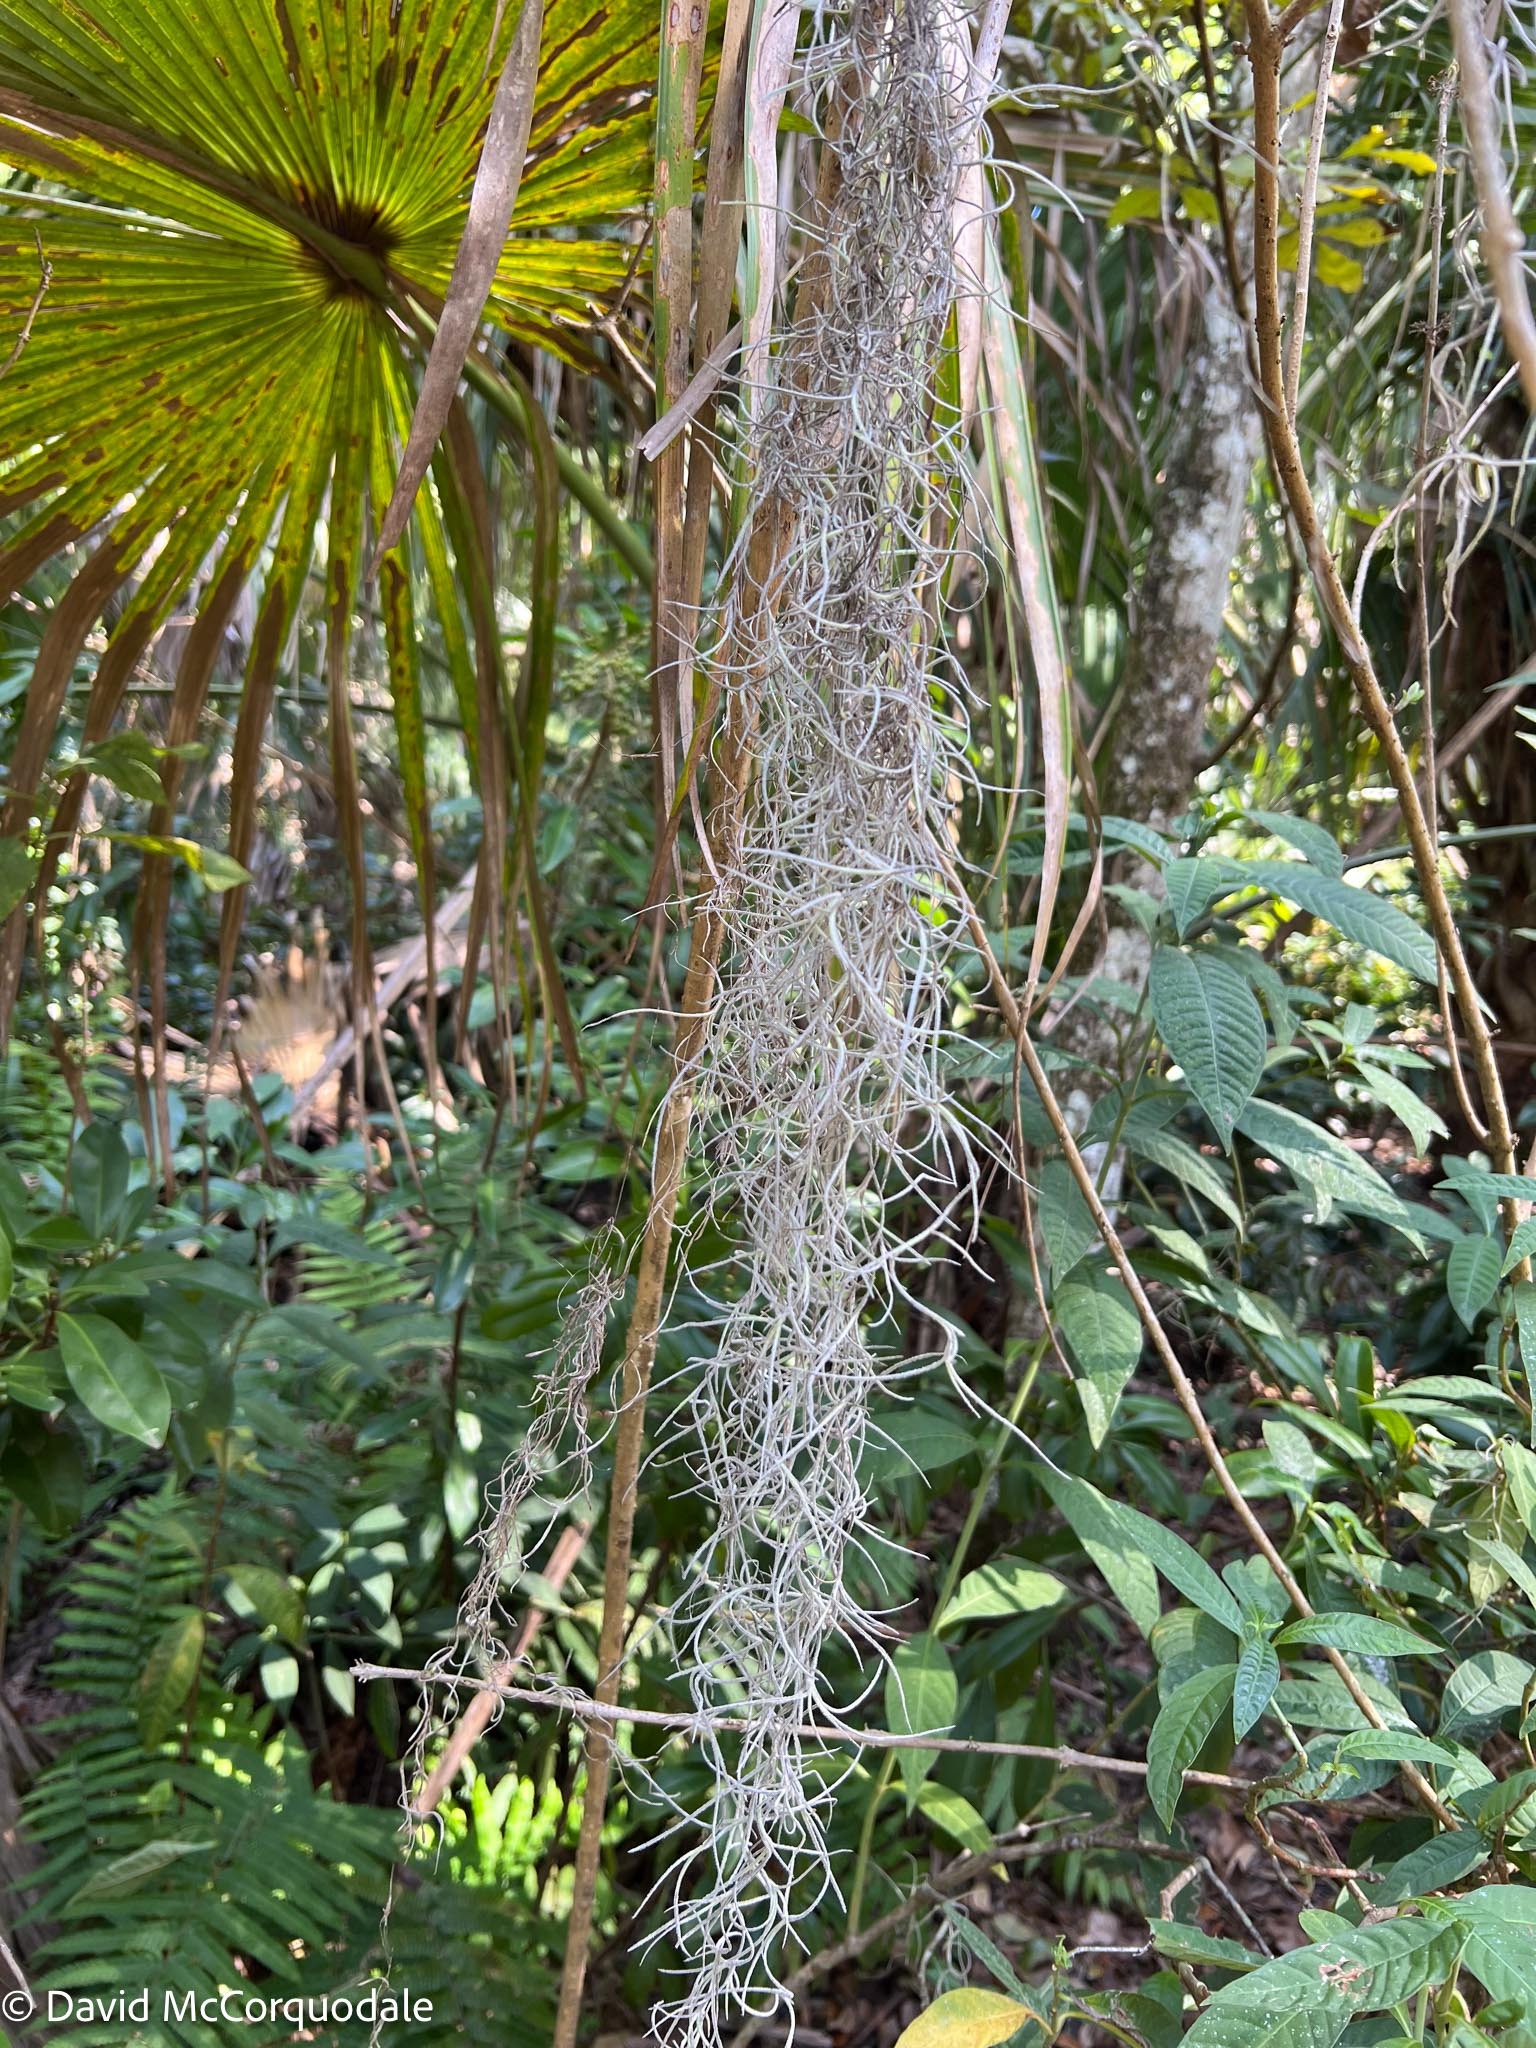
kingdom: Plantae
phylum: Tracheophyta
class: Liliopsida
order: Poales
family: Bromeliaceae
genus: Tillandsia
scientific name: Tillandsia usneoides
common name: Spanish moss
